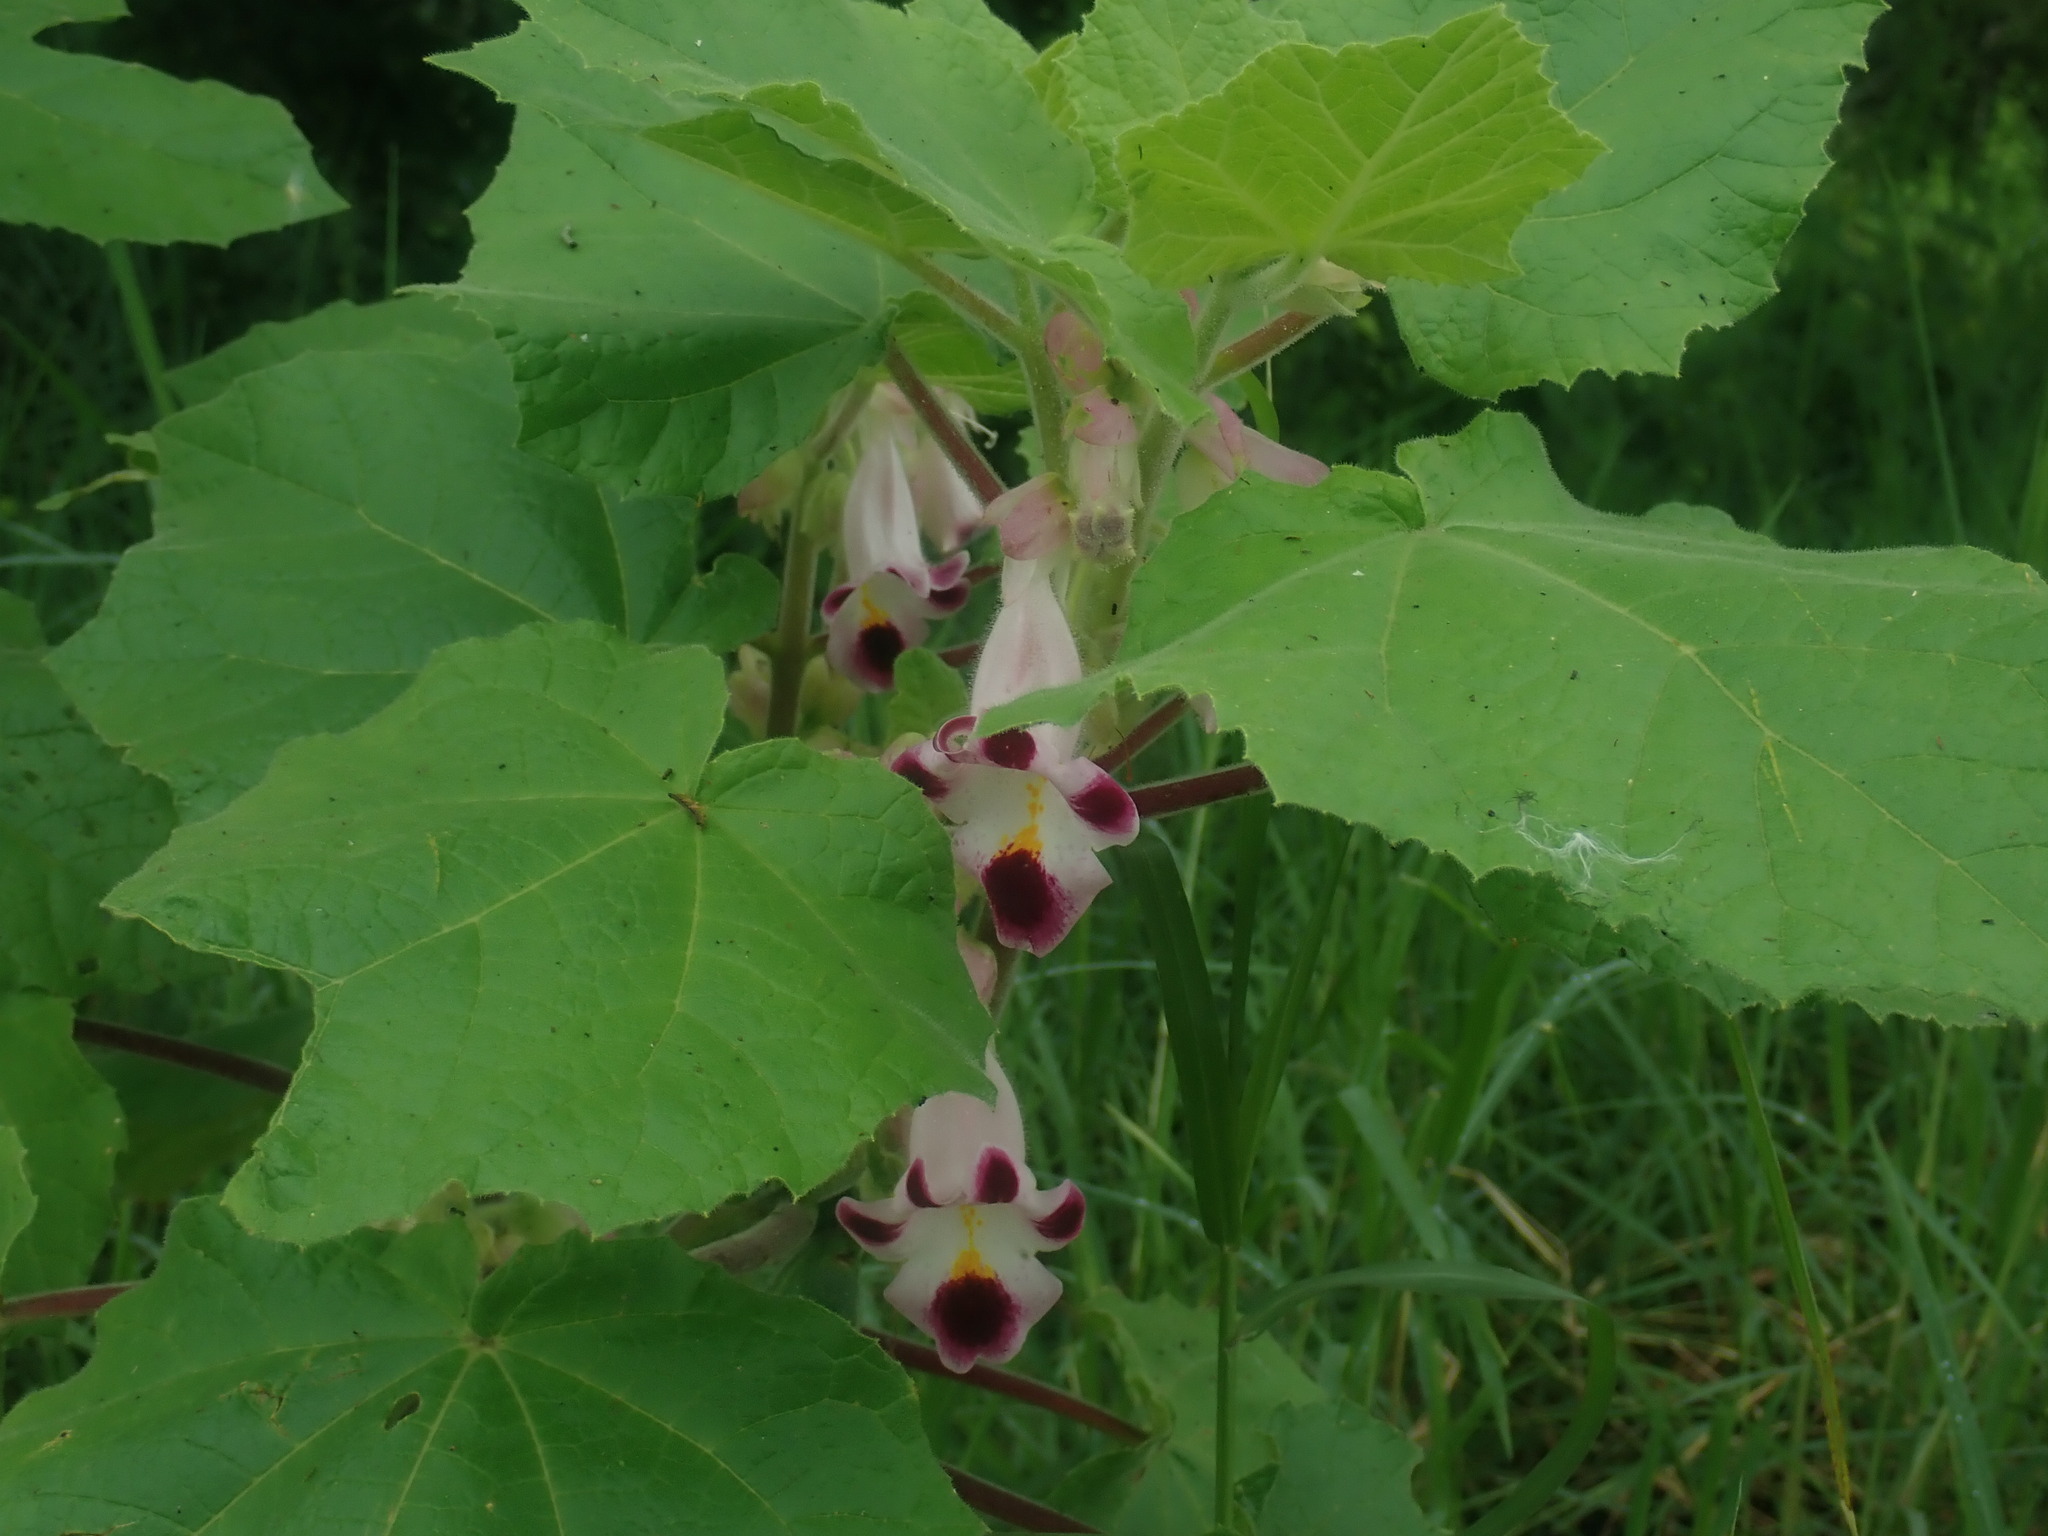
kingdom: Plantae
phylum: Tracheophyta
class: Magnoliopsida
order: Lamiales
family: Martyniaceae
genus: Martynia
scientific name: Martynia annua
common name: Tiger's-claw
